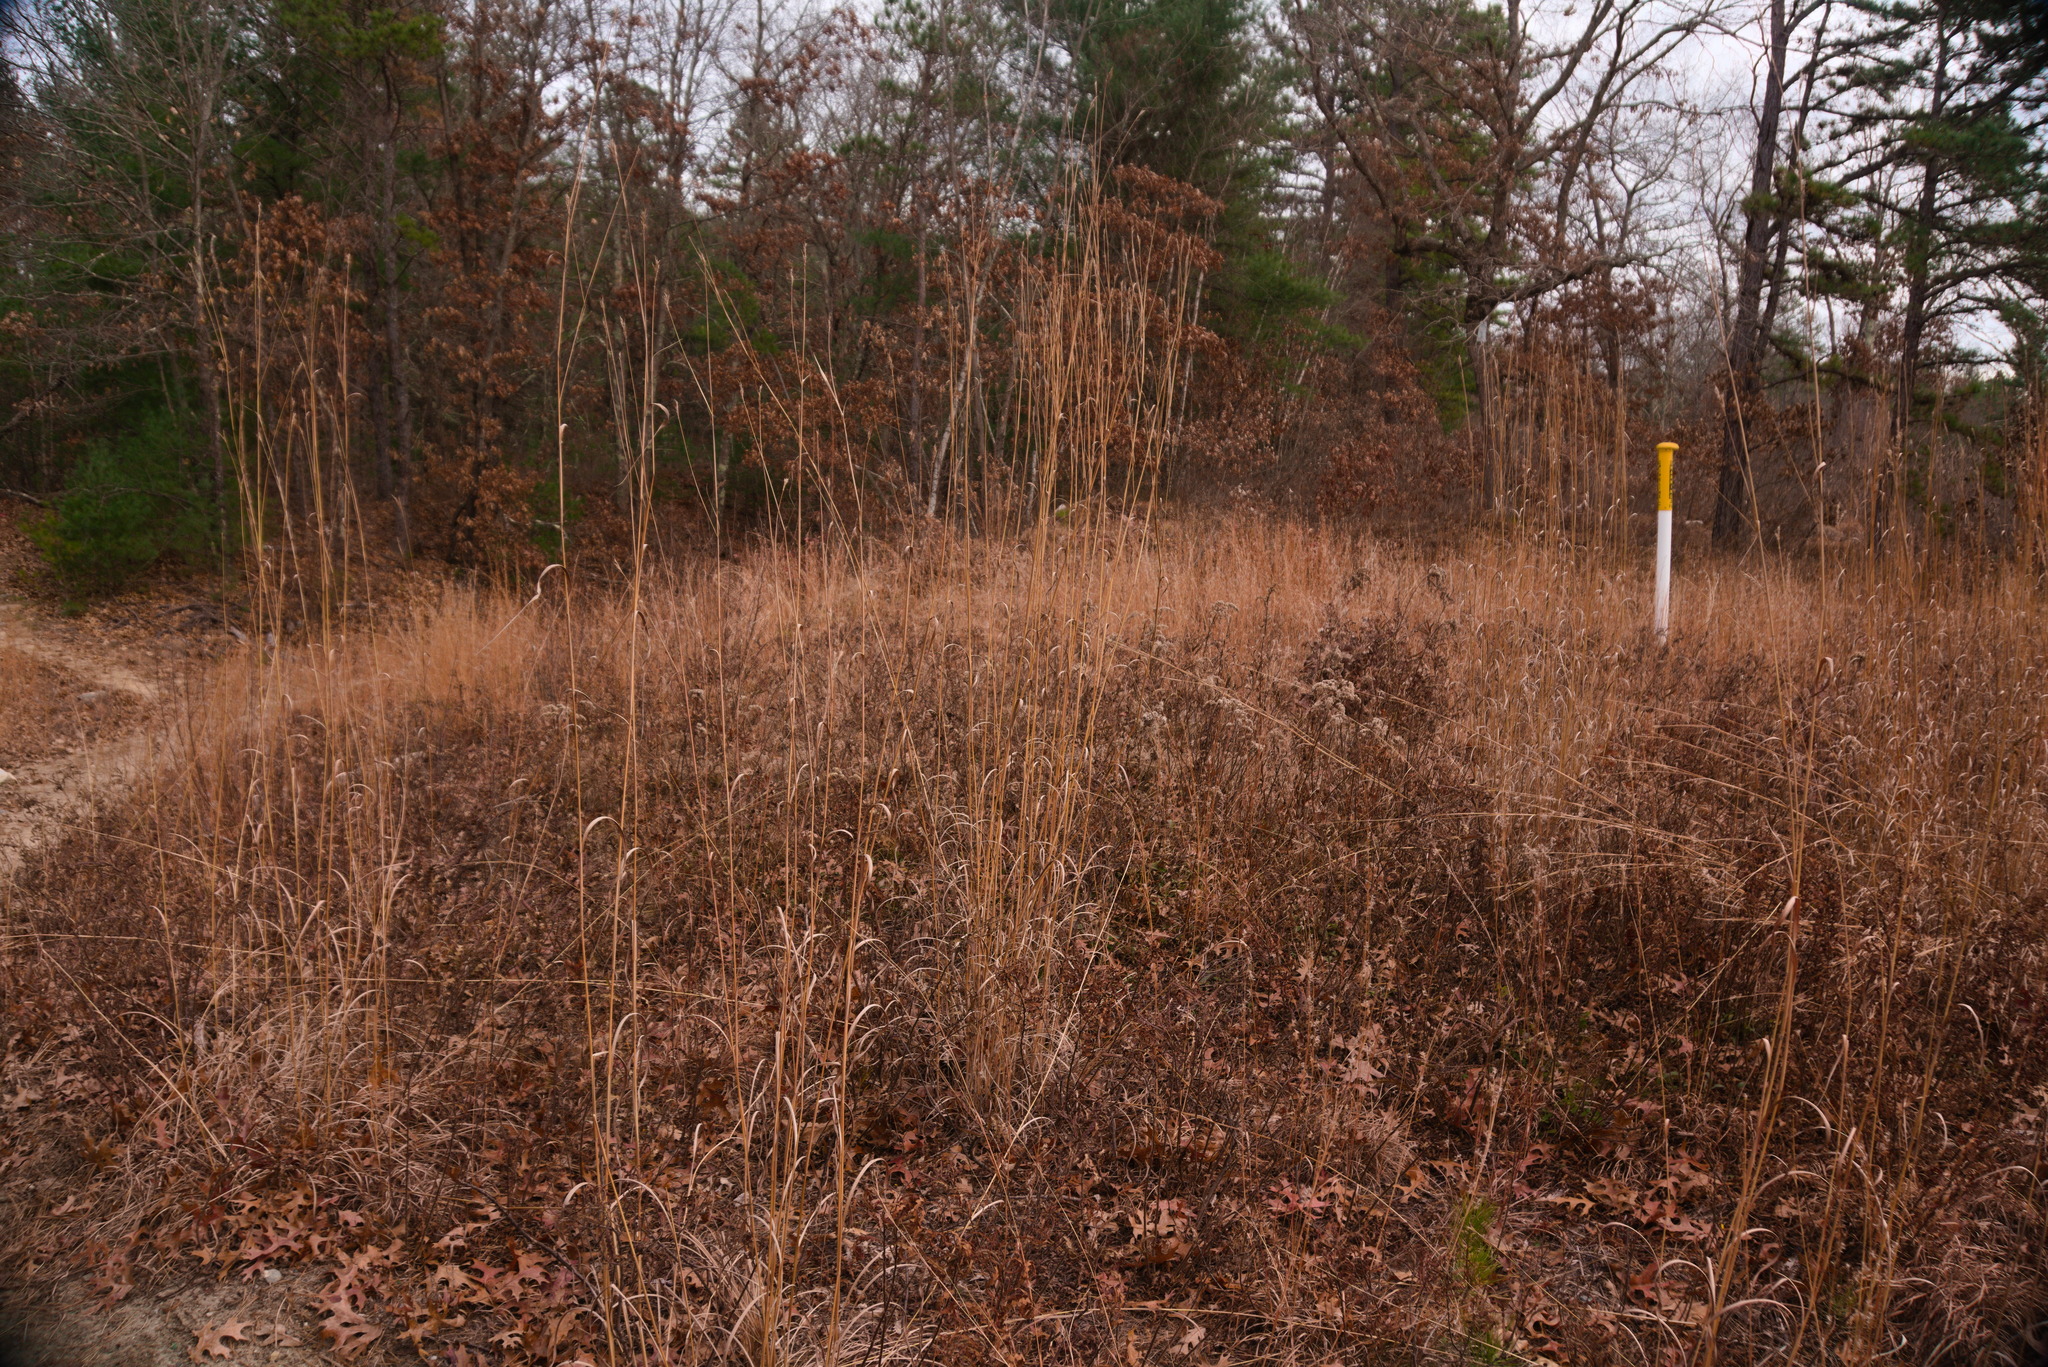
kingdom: Plantae
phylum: Tracheophyta
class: Liliopsida
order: Poales
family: Poaceae
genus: Andropogon
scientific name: Andropogon gerardi
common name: Big bluestem
